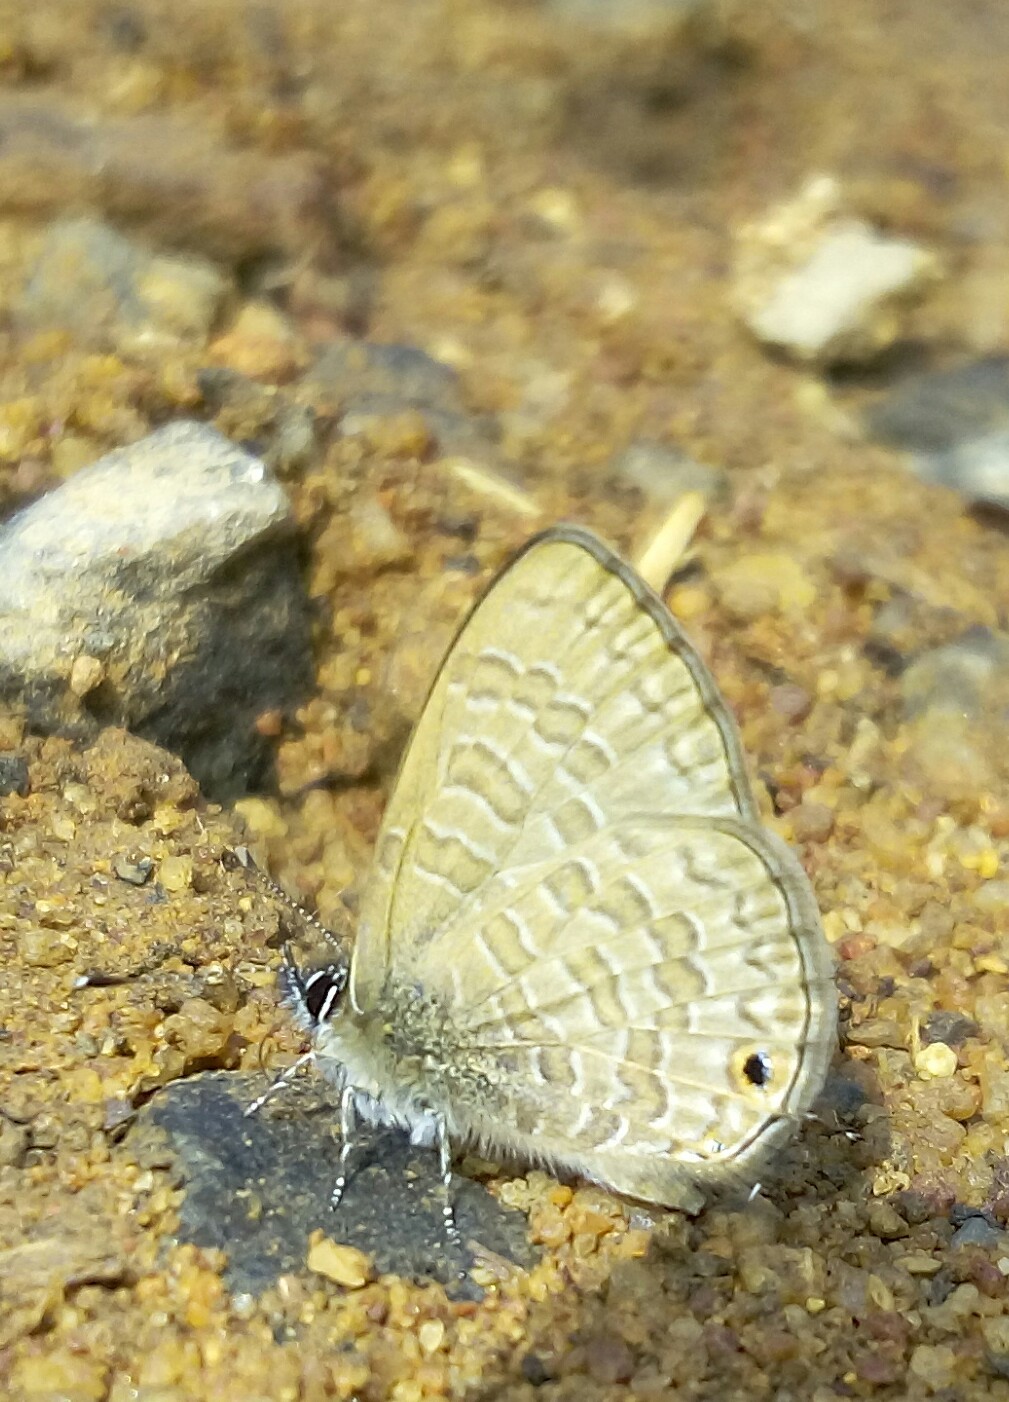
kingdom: Animalia
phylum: Arthropoda
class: Insecta
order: Lepidoptera
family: Lycaenidae
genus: Prosotas
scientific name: Prosotas nora
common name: Common line blue
